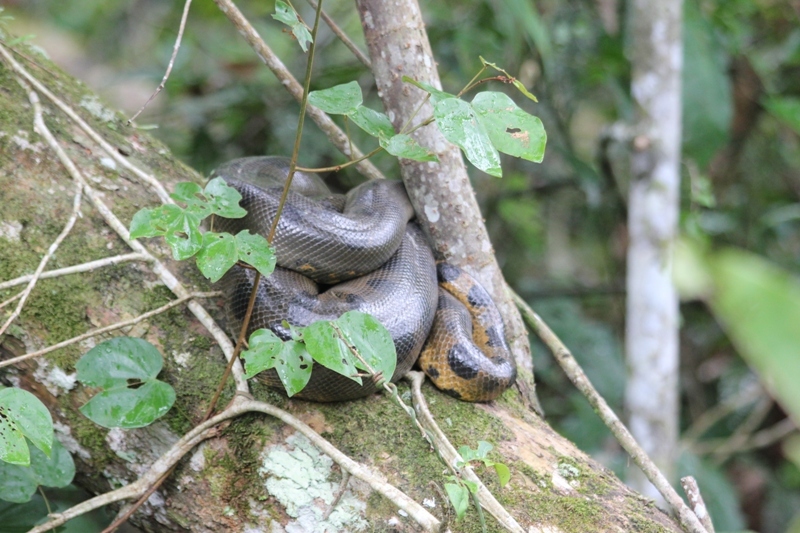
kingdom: Animalia
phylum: Chordata
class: Squamata
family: Boidae
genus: Eunectes
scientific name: Eunectes murinus
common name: Anaconda
